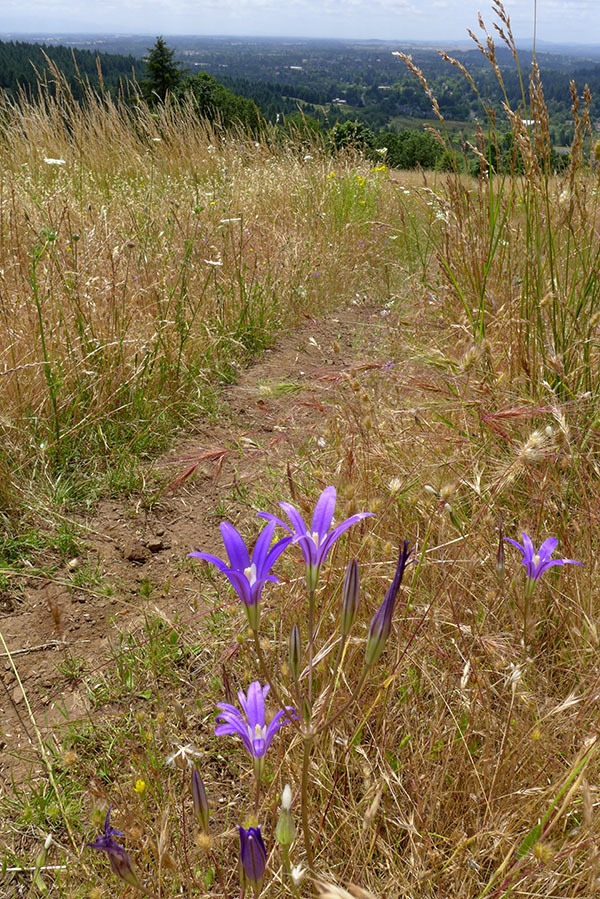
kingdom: Plantae
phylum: Tracheophyta
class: Liliopsida
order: Asparagales
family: Asparagaceae
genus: Brodiaea
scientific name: Brodiaea elegans
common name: Elegant cluster-lily
